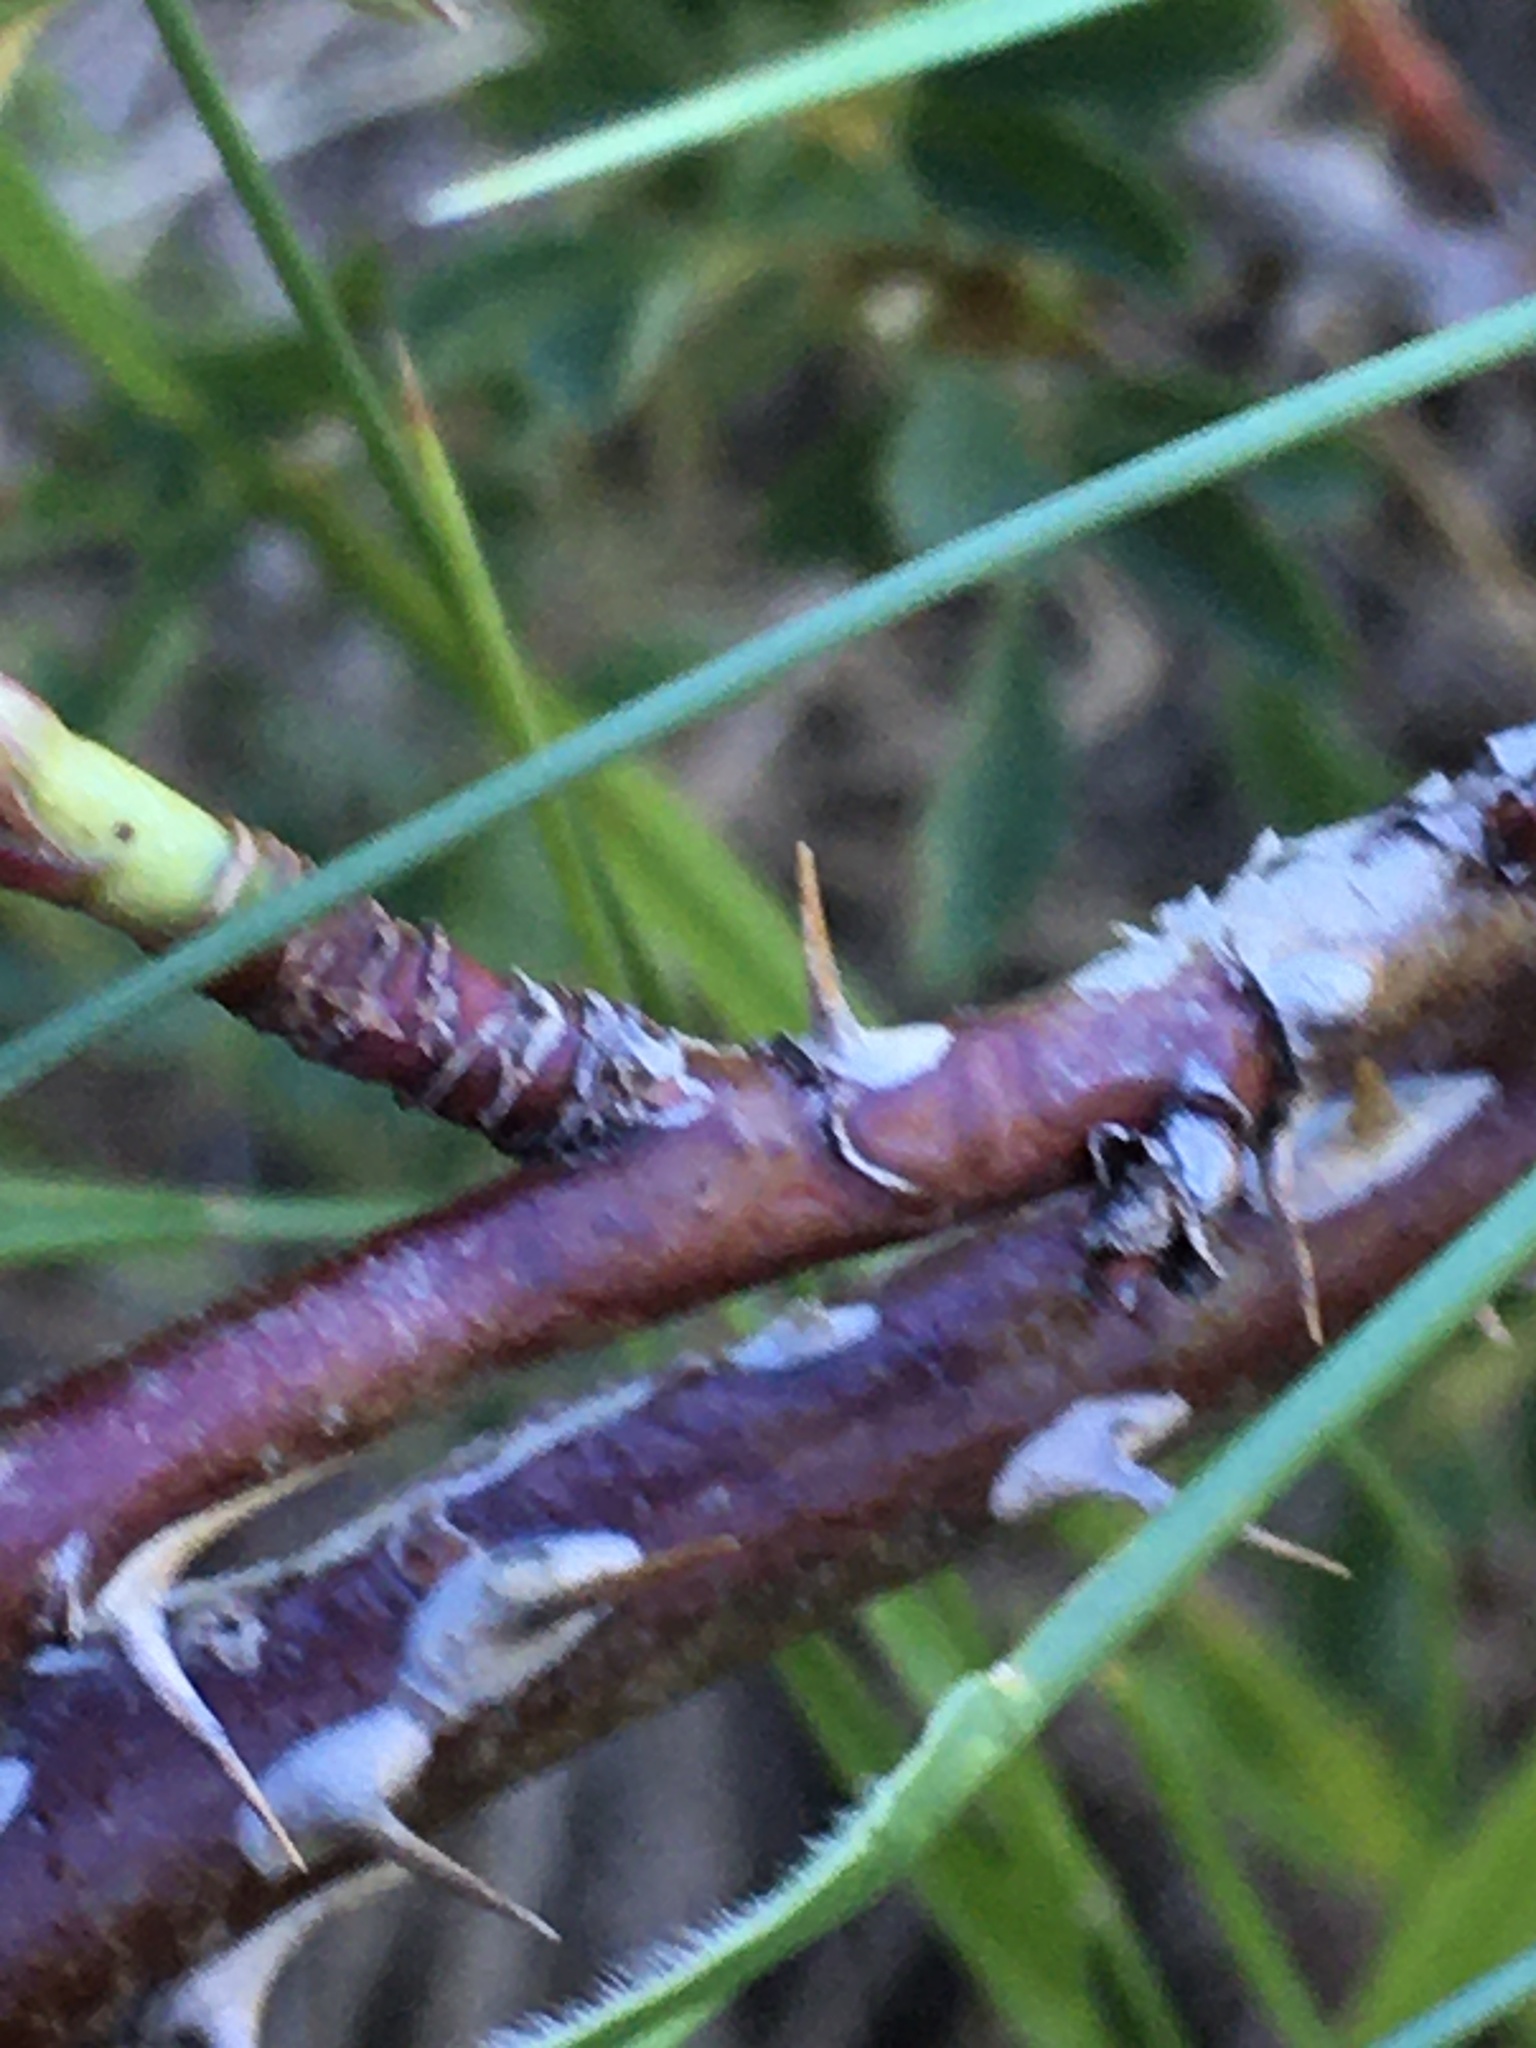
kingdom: Plantae
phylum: Tracheophyta
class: Magnoliopsida
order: Rosales
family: Rosaceae
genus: Rosa
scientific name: Rosa woodsii
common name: Woods's rose
